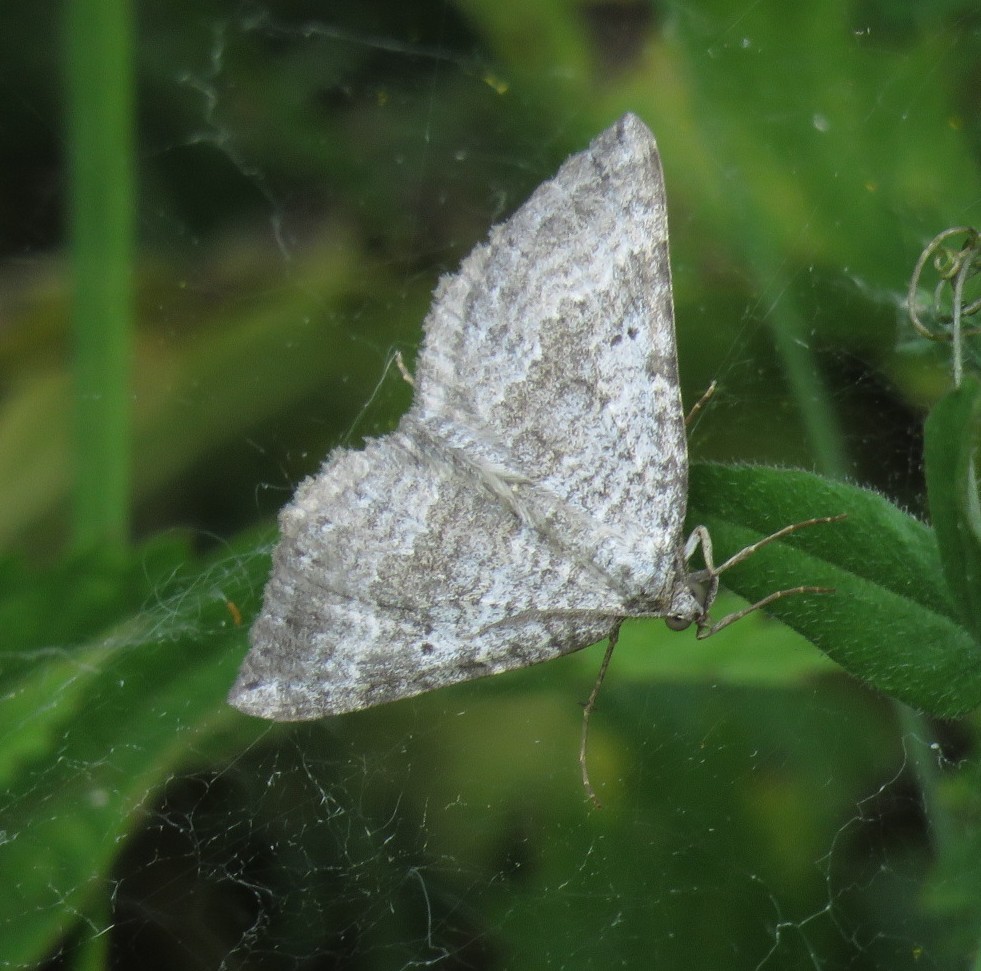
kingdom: Animalia
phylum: Arthropoda
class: Insecta
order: Lepidoptera
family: Geometridae
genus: Scotopteryx
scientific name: Scotopteryx bipunctaria
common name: Chalk carpet
